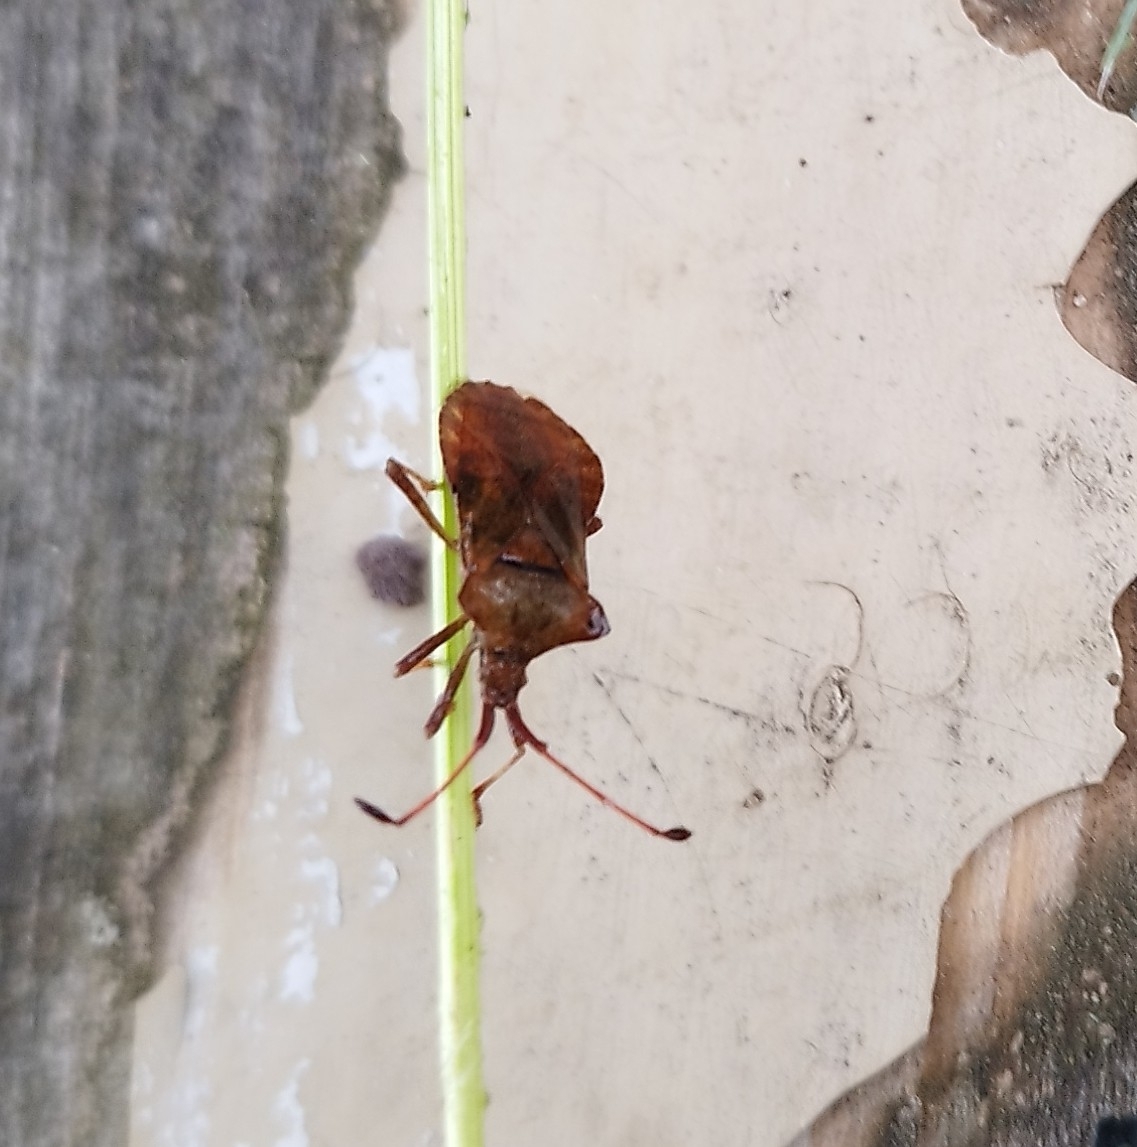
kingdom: Animalia
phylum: Arthropoda
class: Insecta
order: Hemiptera
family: Coreidae
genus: Coreus
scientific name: Coreus marginatus
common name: Dock bug
